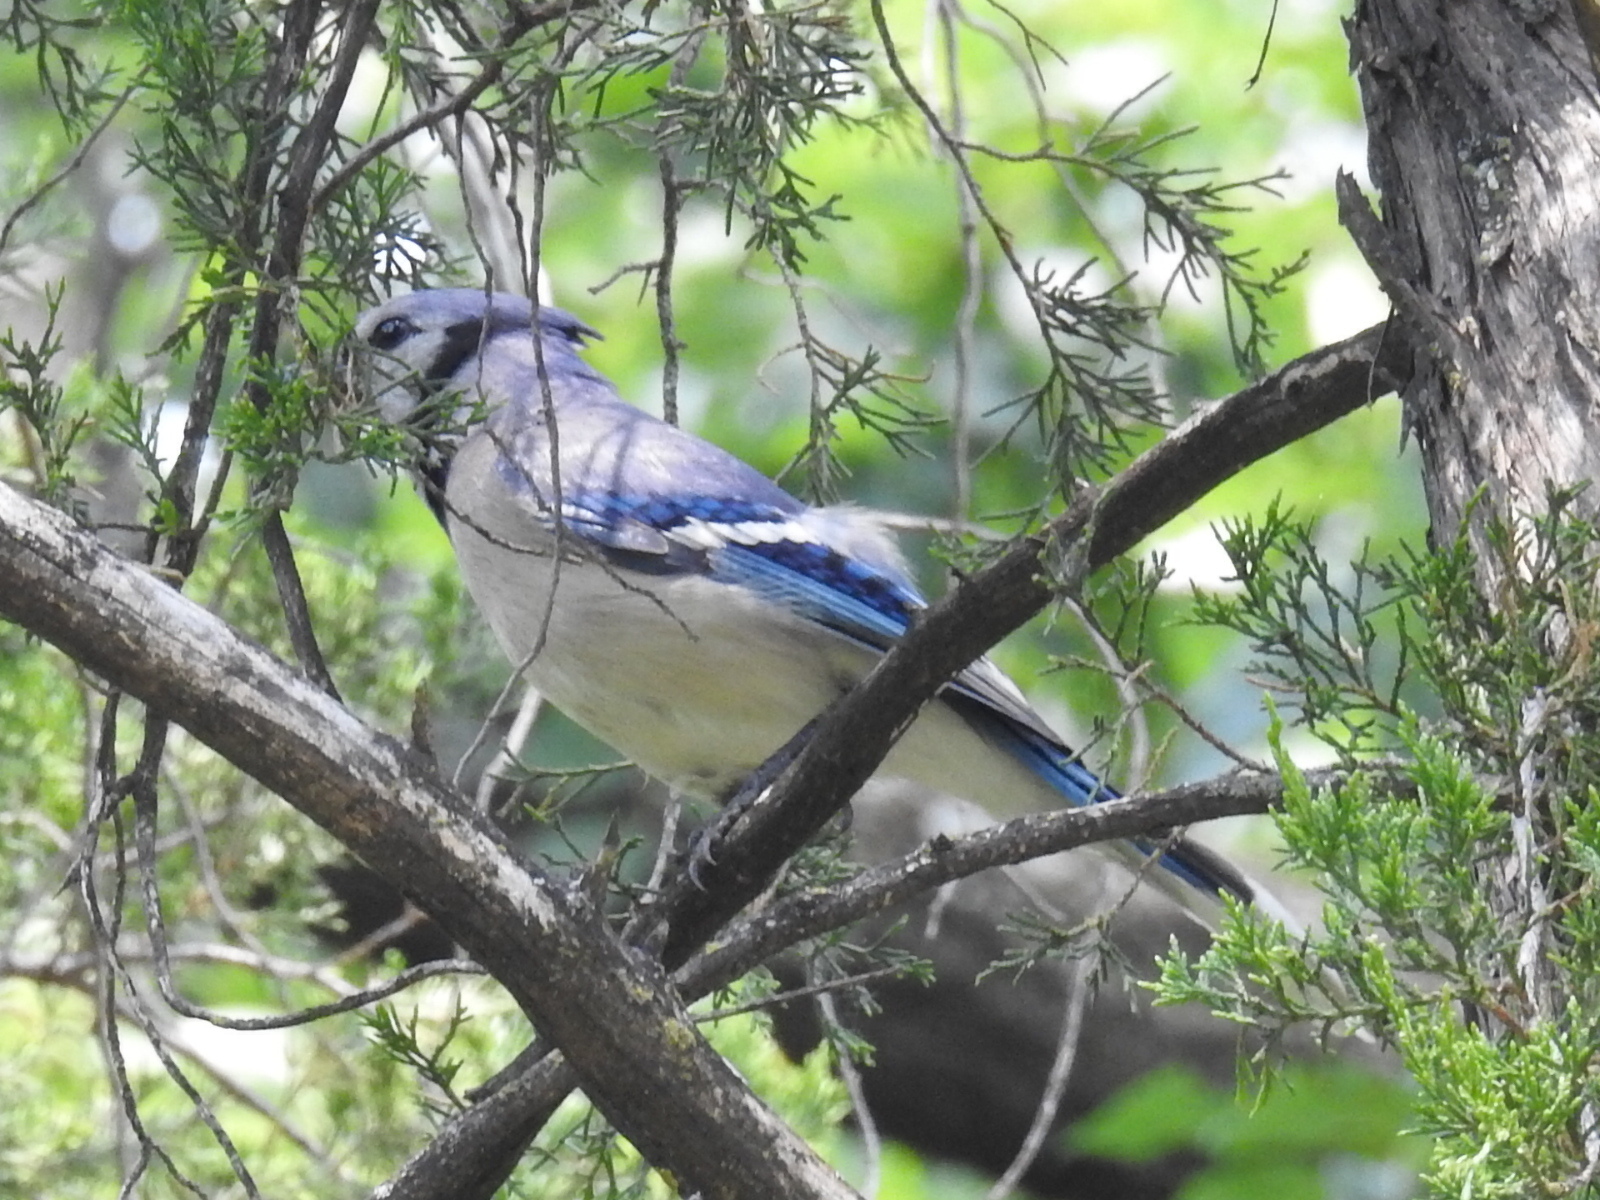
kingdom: Animalia
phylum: Chordata
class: Aves
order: Passeriformes
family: Corvidae
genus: Cyanocitta
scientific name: Cyanocitta cristata
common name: Blue jay
